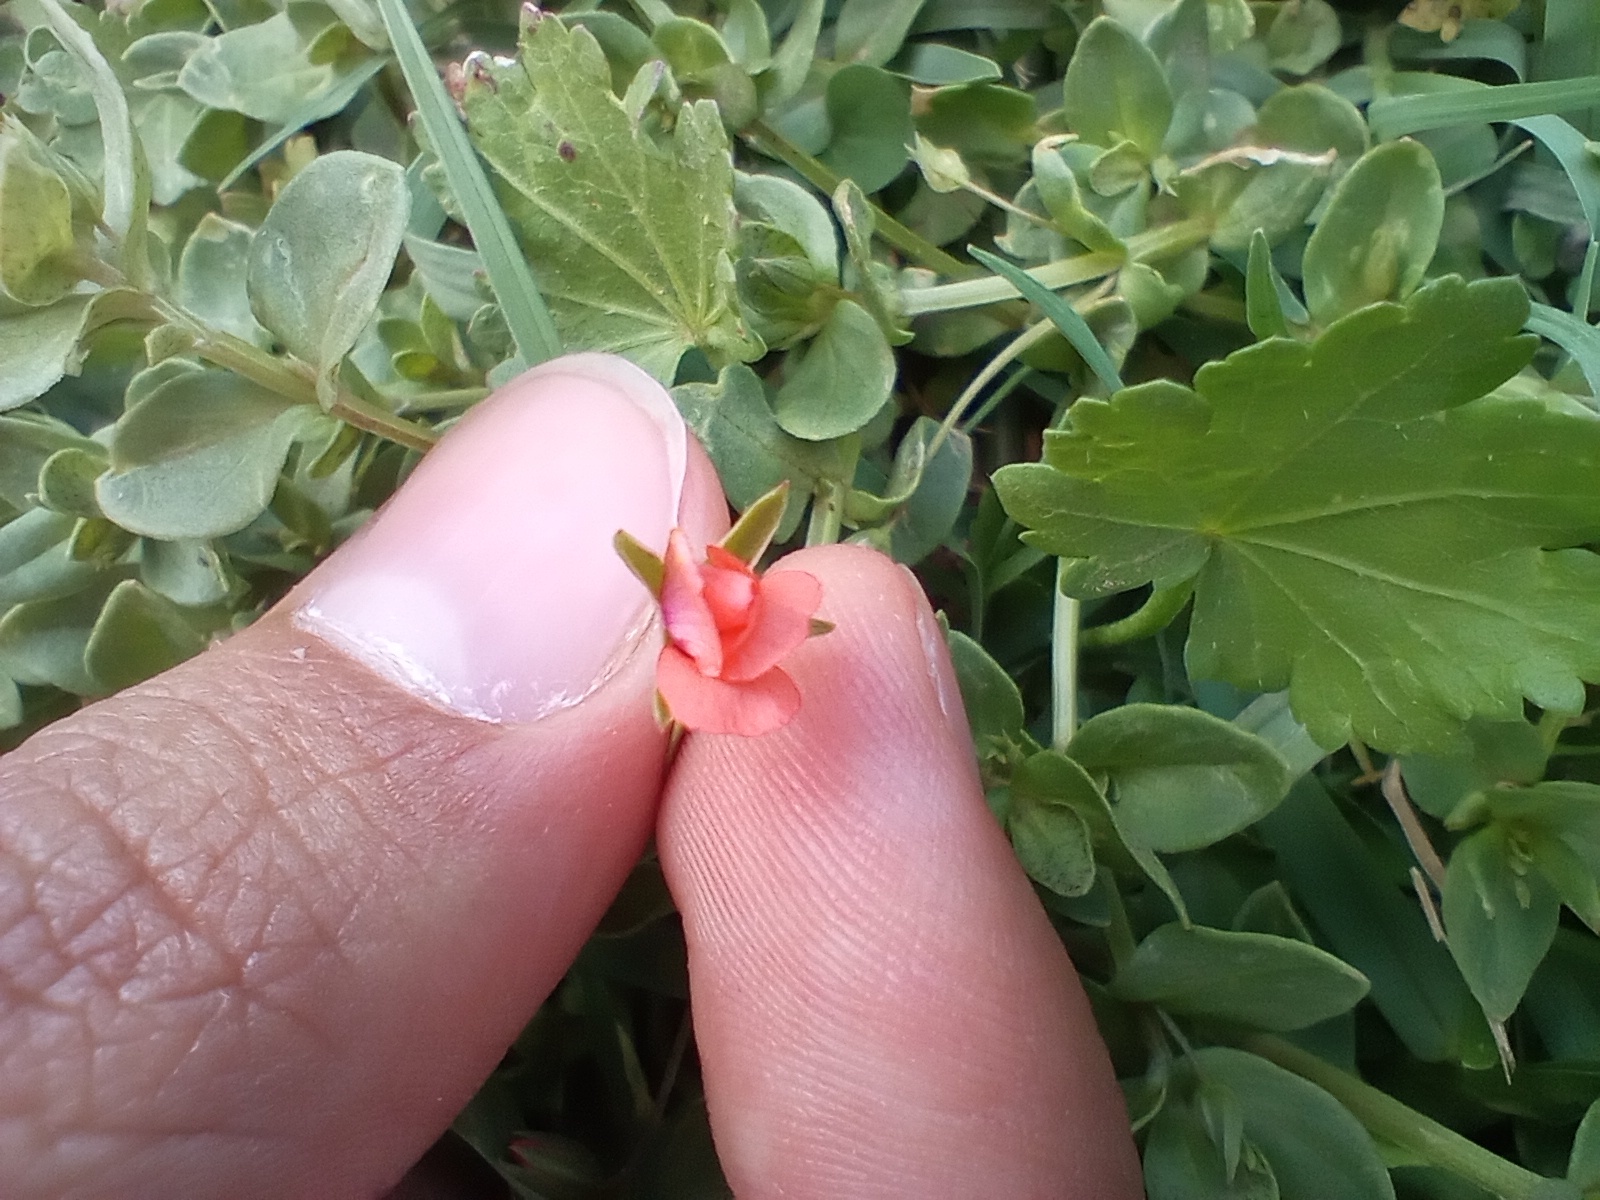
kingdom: Plantae
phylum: Tracheophyta
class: Magnoliopsida
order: Ericales
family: Primulaceae
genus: Lysimachia
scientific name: Lysimachia arvensis
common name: Scarlet pimpernel
